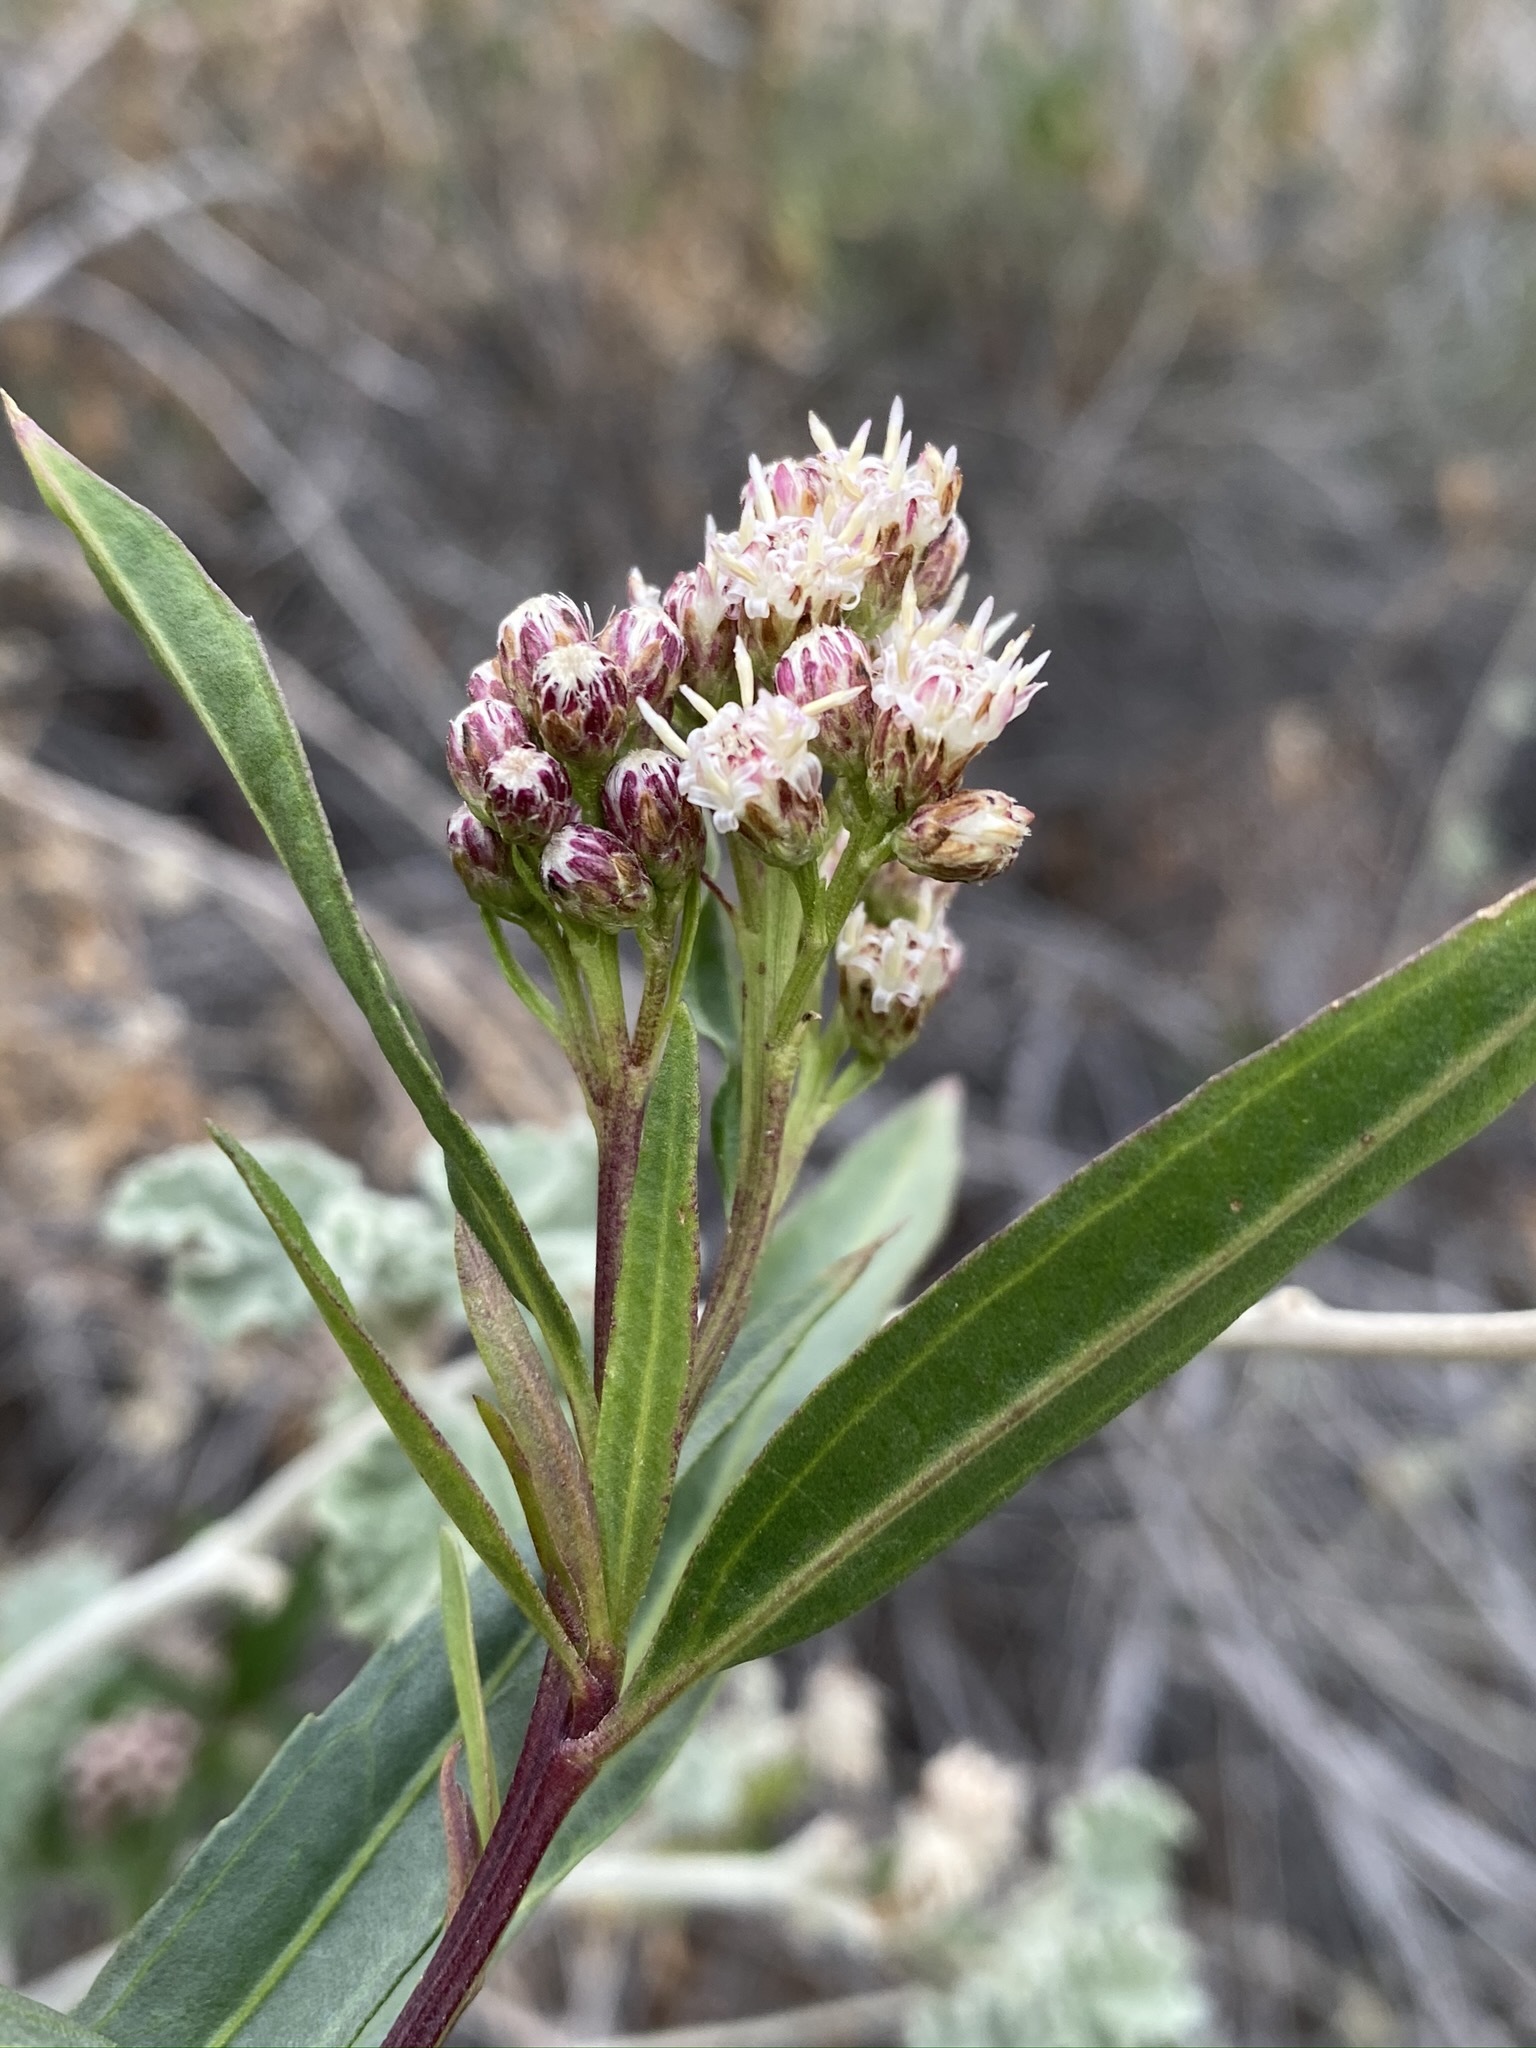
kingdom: Plantae
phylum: Tracheophyta
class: Magnoliopsida
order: Asterales
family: Asteraceae
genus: Baccharis
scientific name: Baccharis salicifolia
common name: Sticky baccharis
